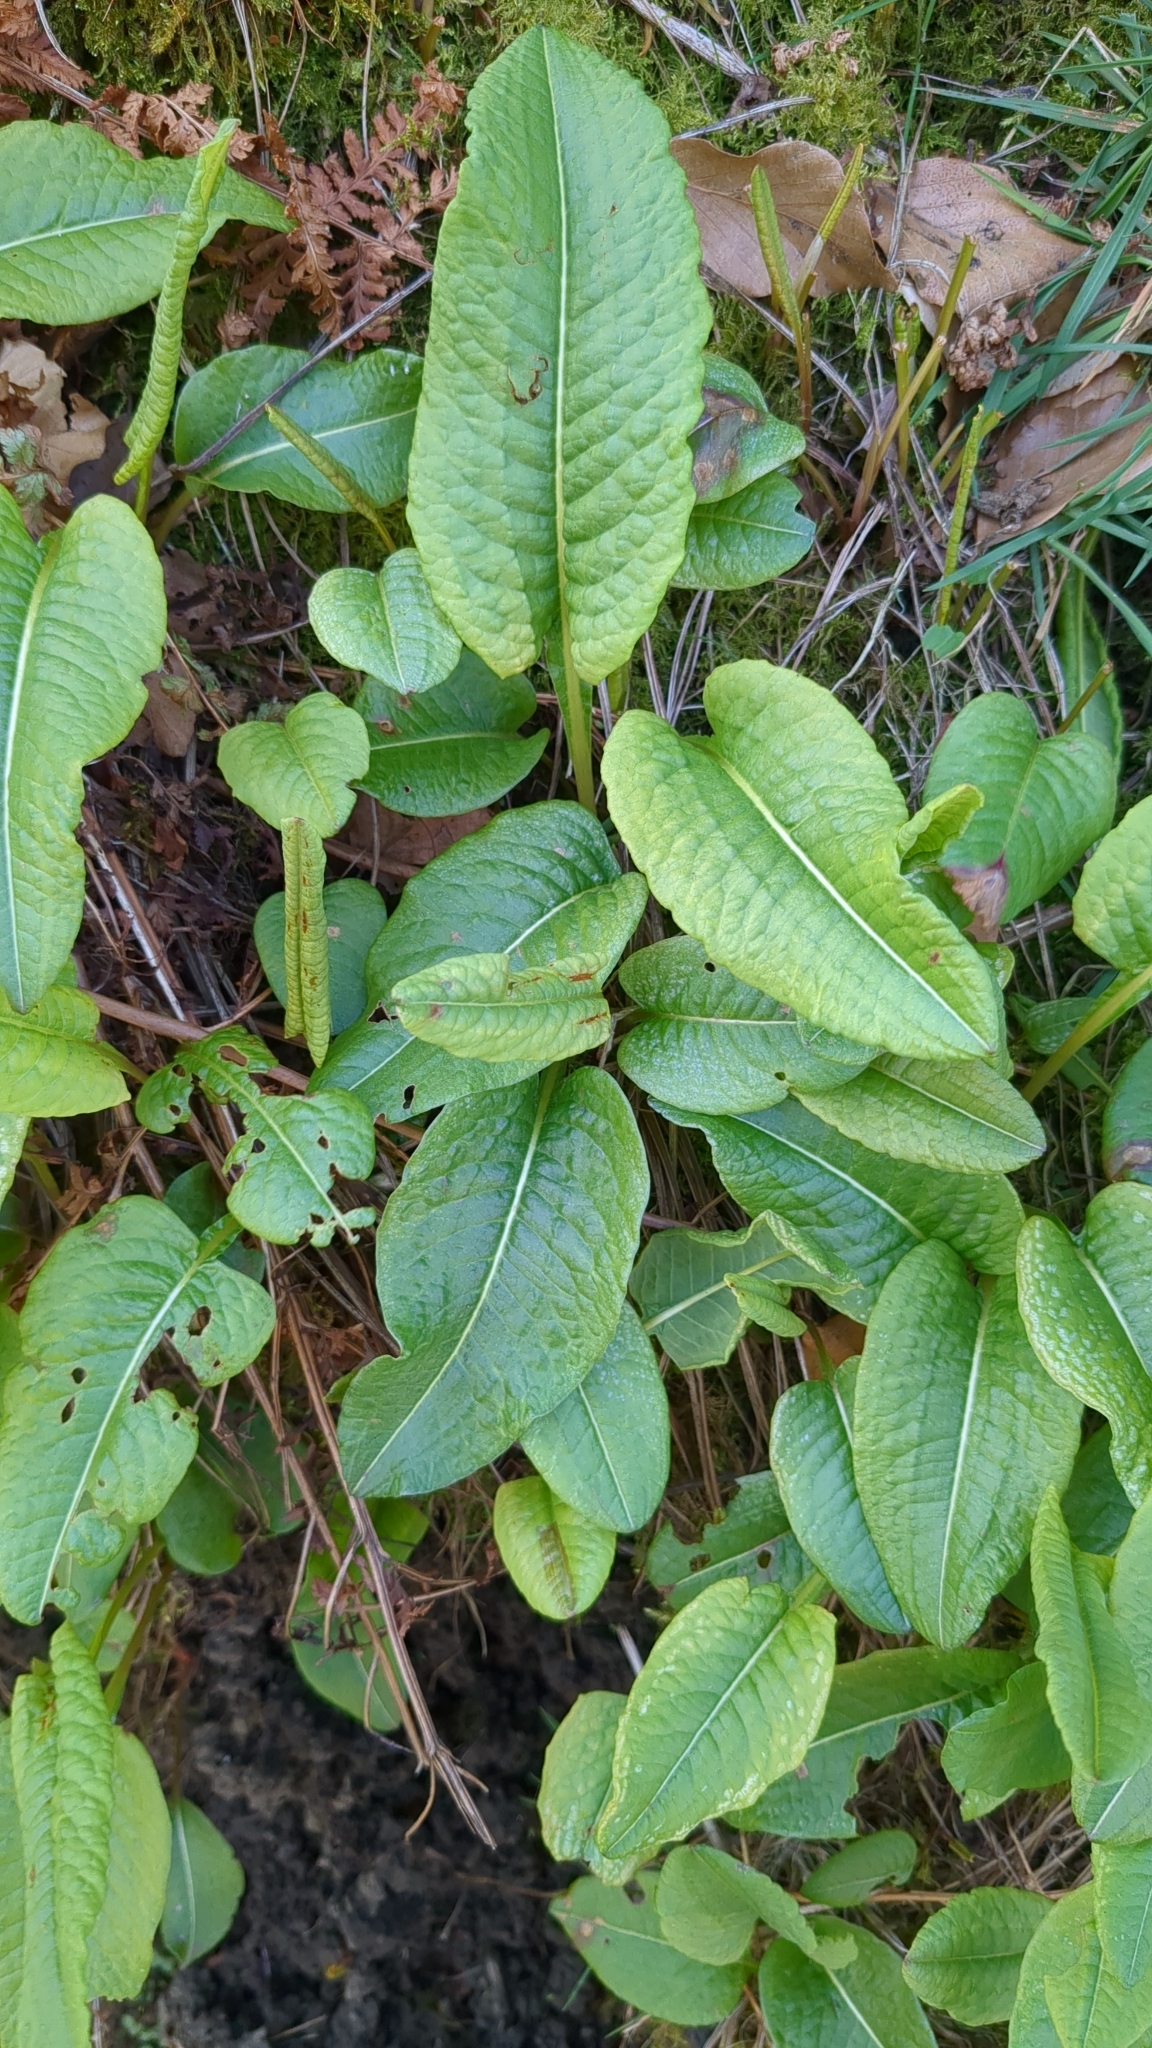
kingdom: Plantae
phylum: Tracheophyta
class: Magnoliopsida
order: Caryophyllales
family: Polygonaceae
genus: Bistorta
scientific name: Bistorta officinalis
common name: Common bistort
